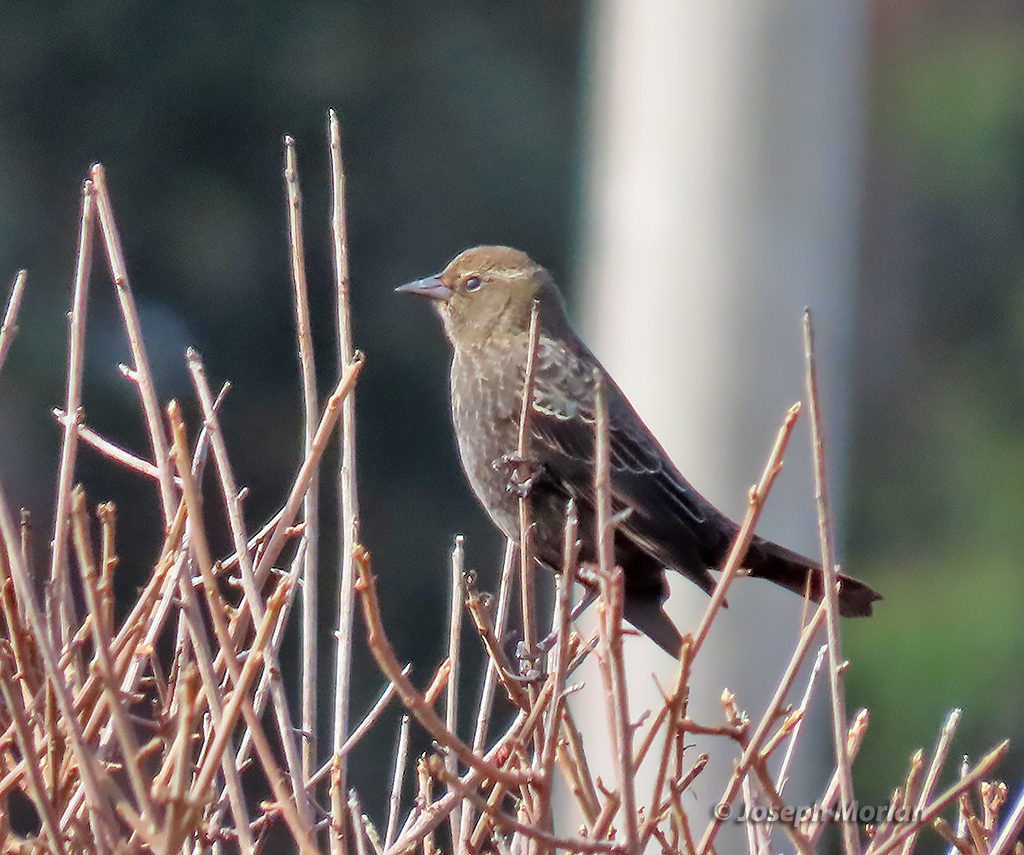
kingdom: Animalia
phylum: Chordata
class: Aves
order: Passeriformes
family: Icteridae
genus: Agelaius
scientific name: Agelaius phoeniceus
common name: Red-winged blackbird
